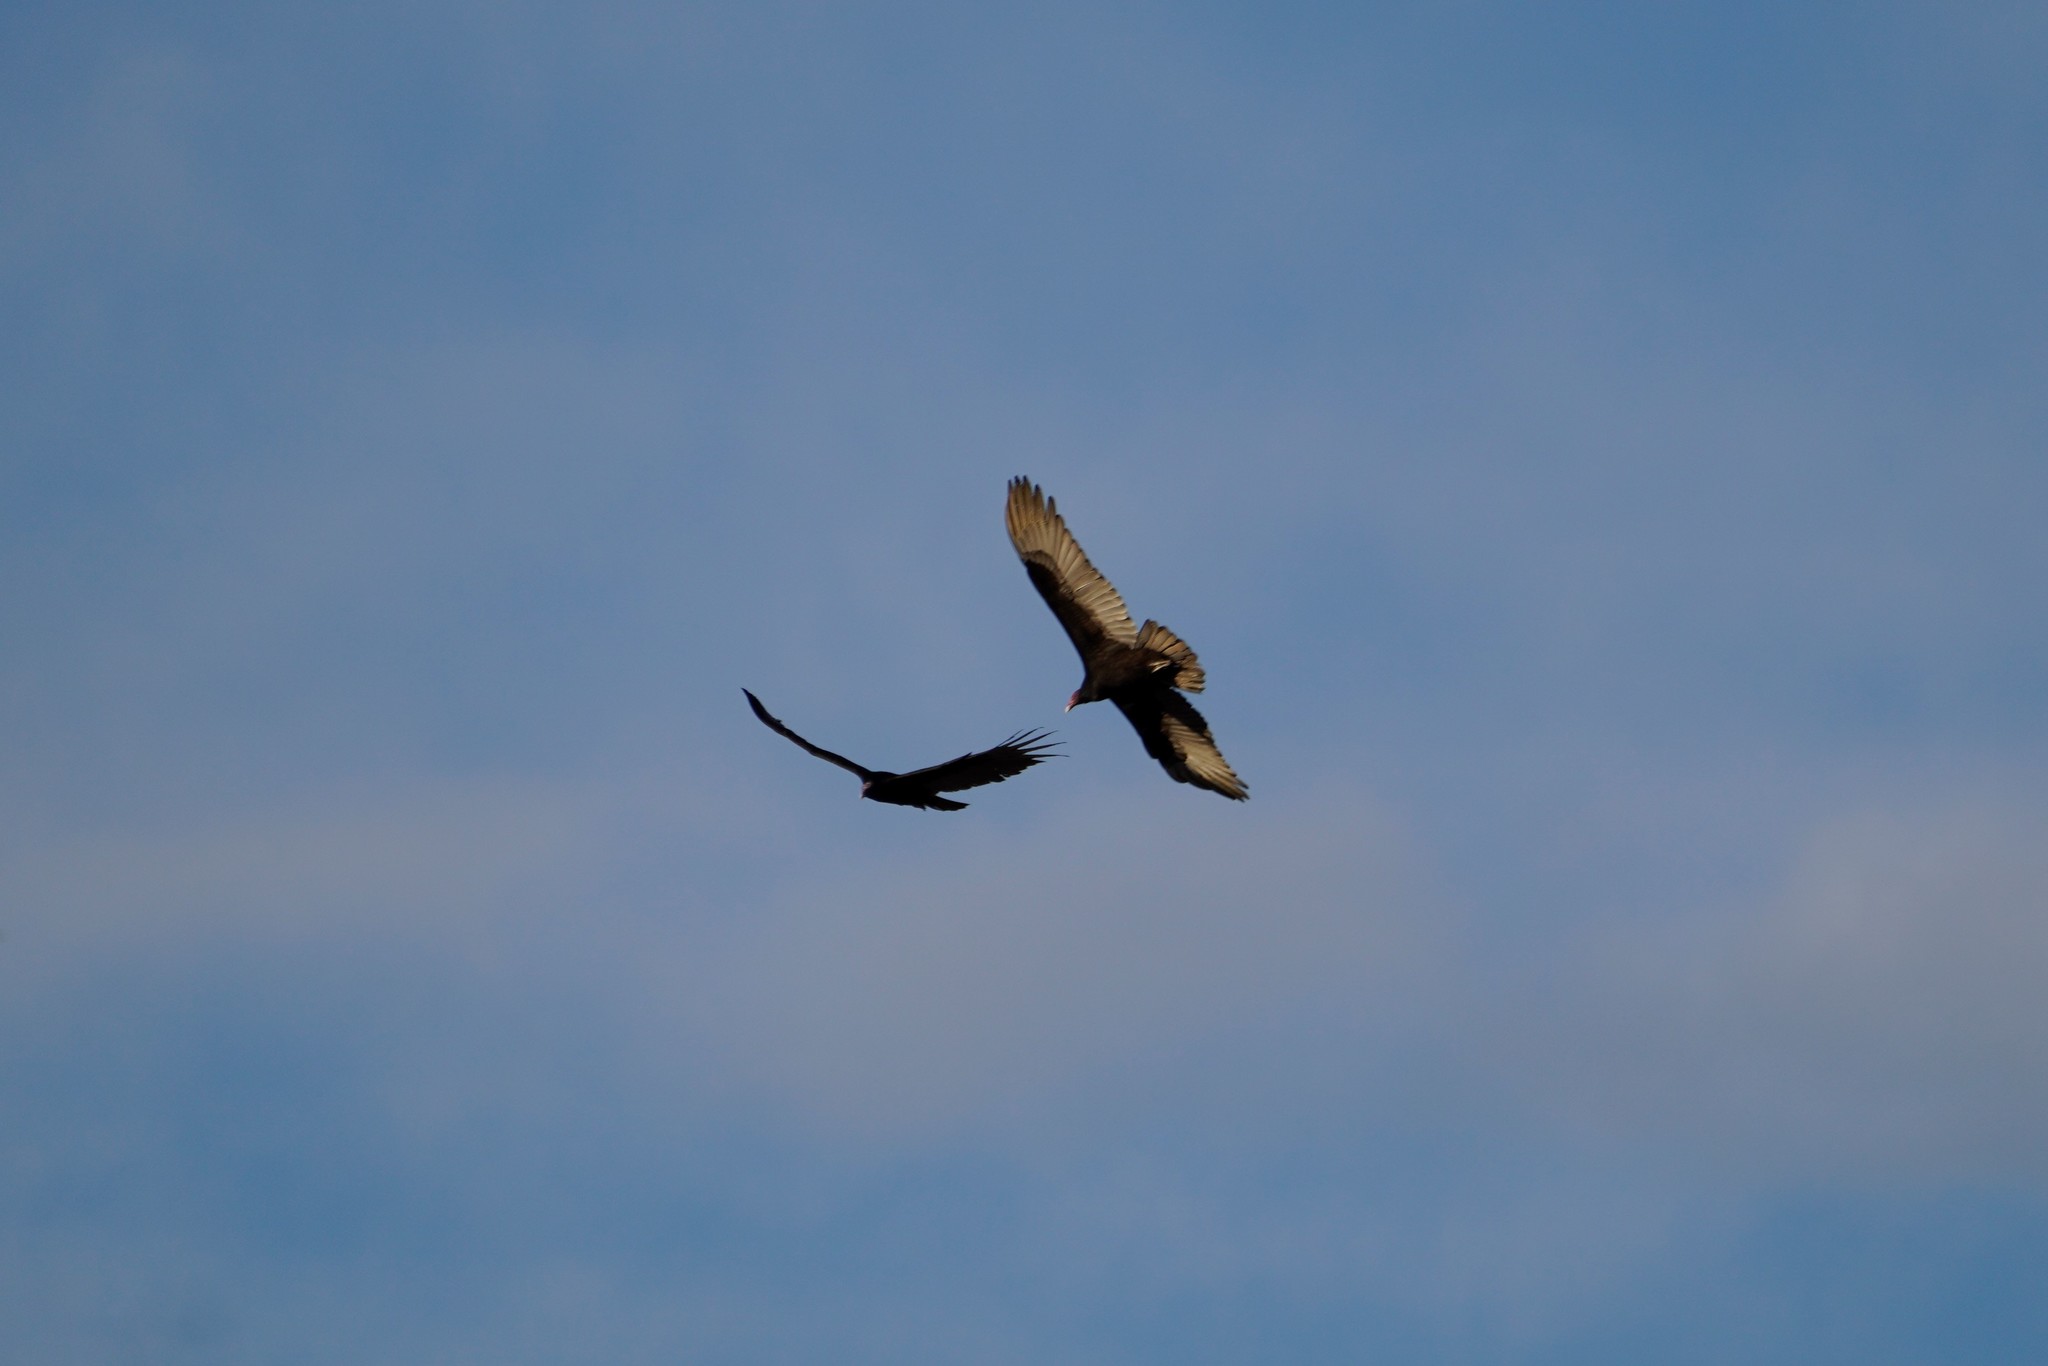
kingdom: Animalia
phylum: Chordata
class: Aves
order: Accipitriformes
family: Cathartidae
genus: Cathartes
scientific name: Cathartes aura
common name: Turkey vulture
